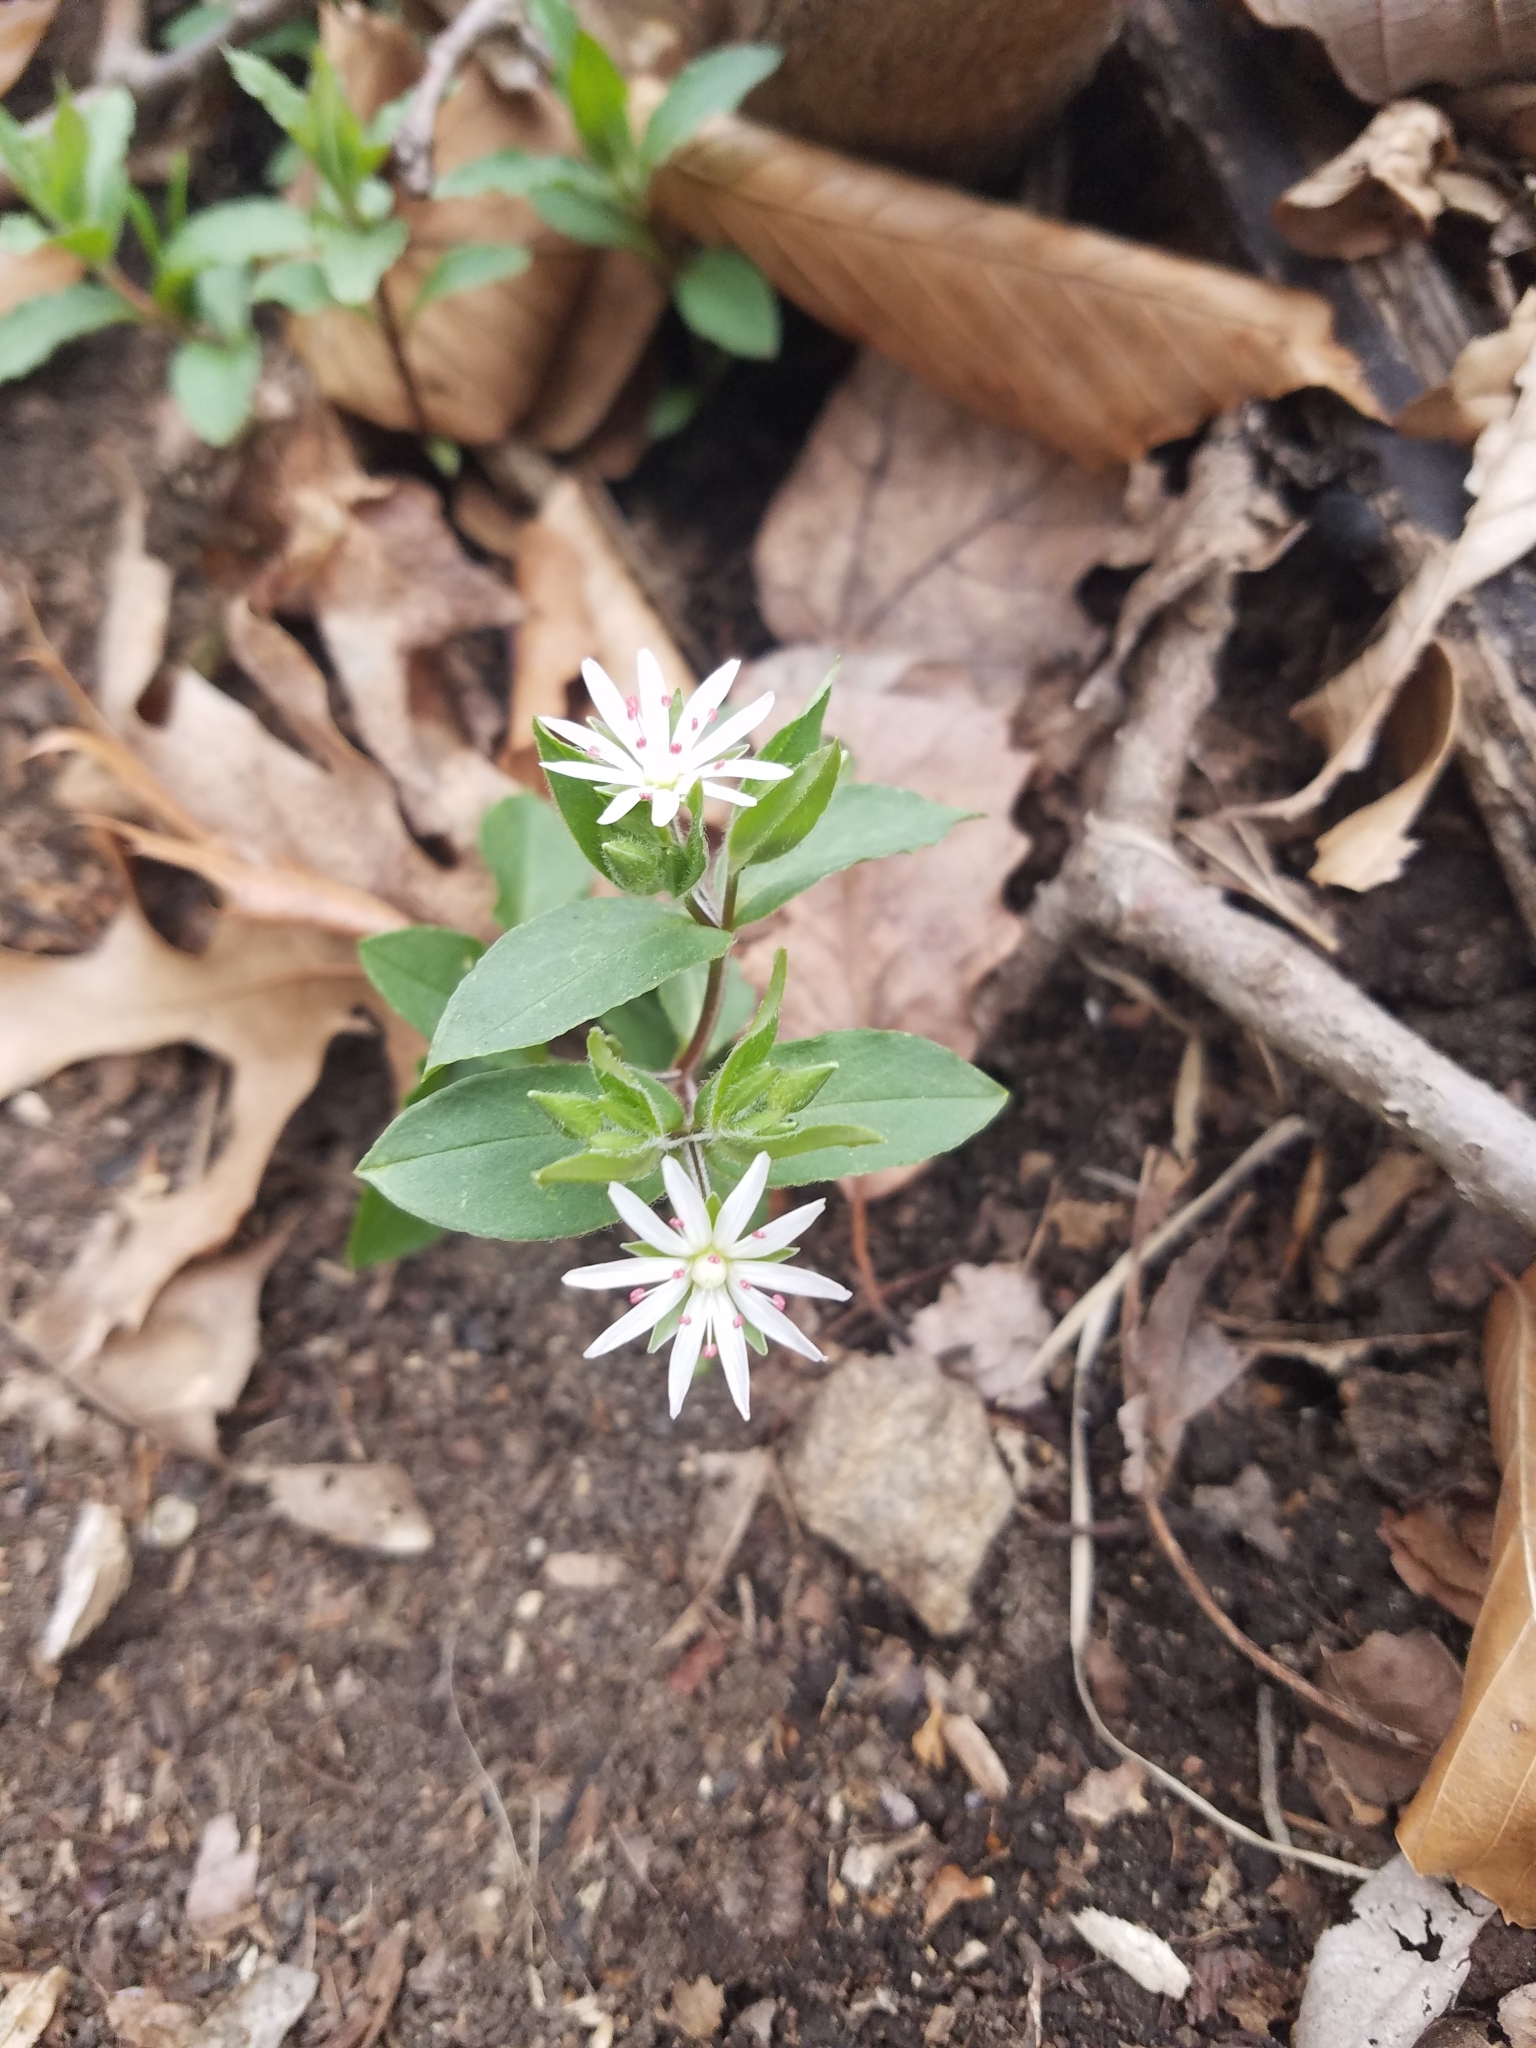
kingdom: Plantae
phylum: Tracheophyta
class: Magnoliopsida
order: Caryophyllales
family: Caryophyllaceae
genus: Stellaria
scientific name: Stellaria pubera
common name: Star chickweed
